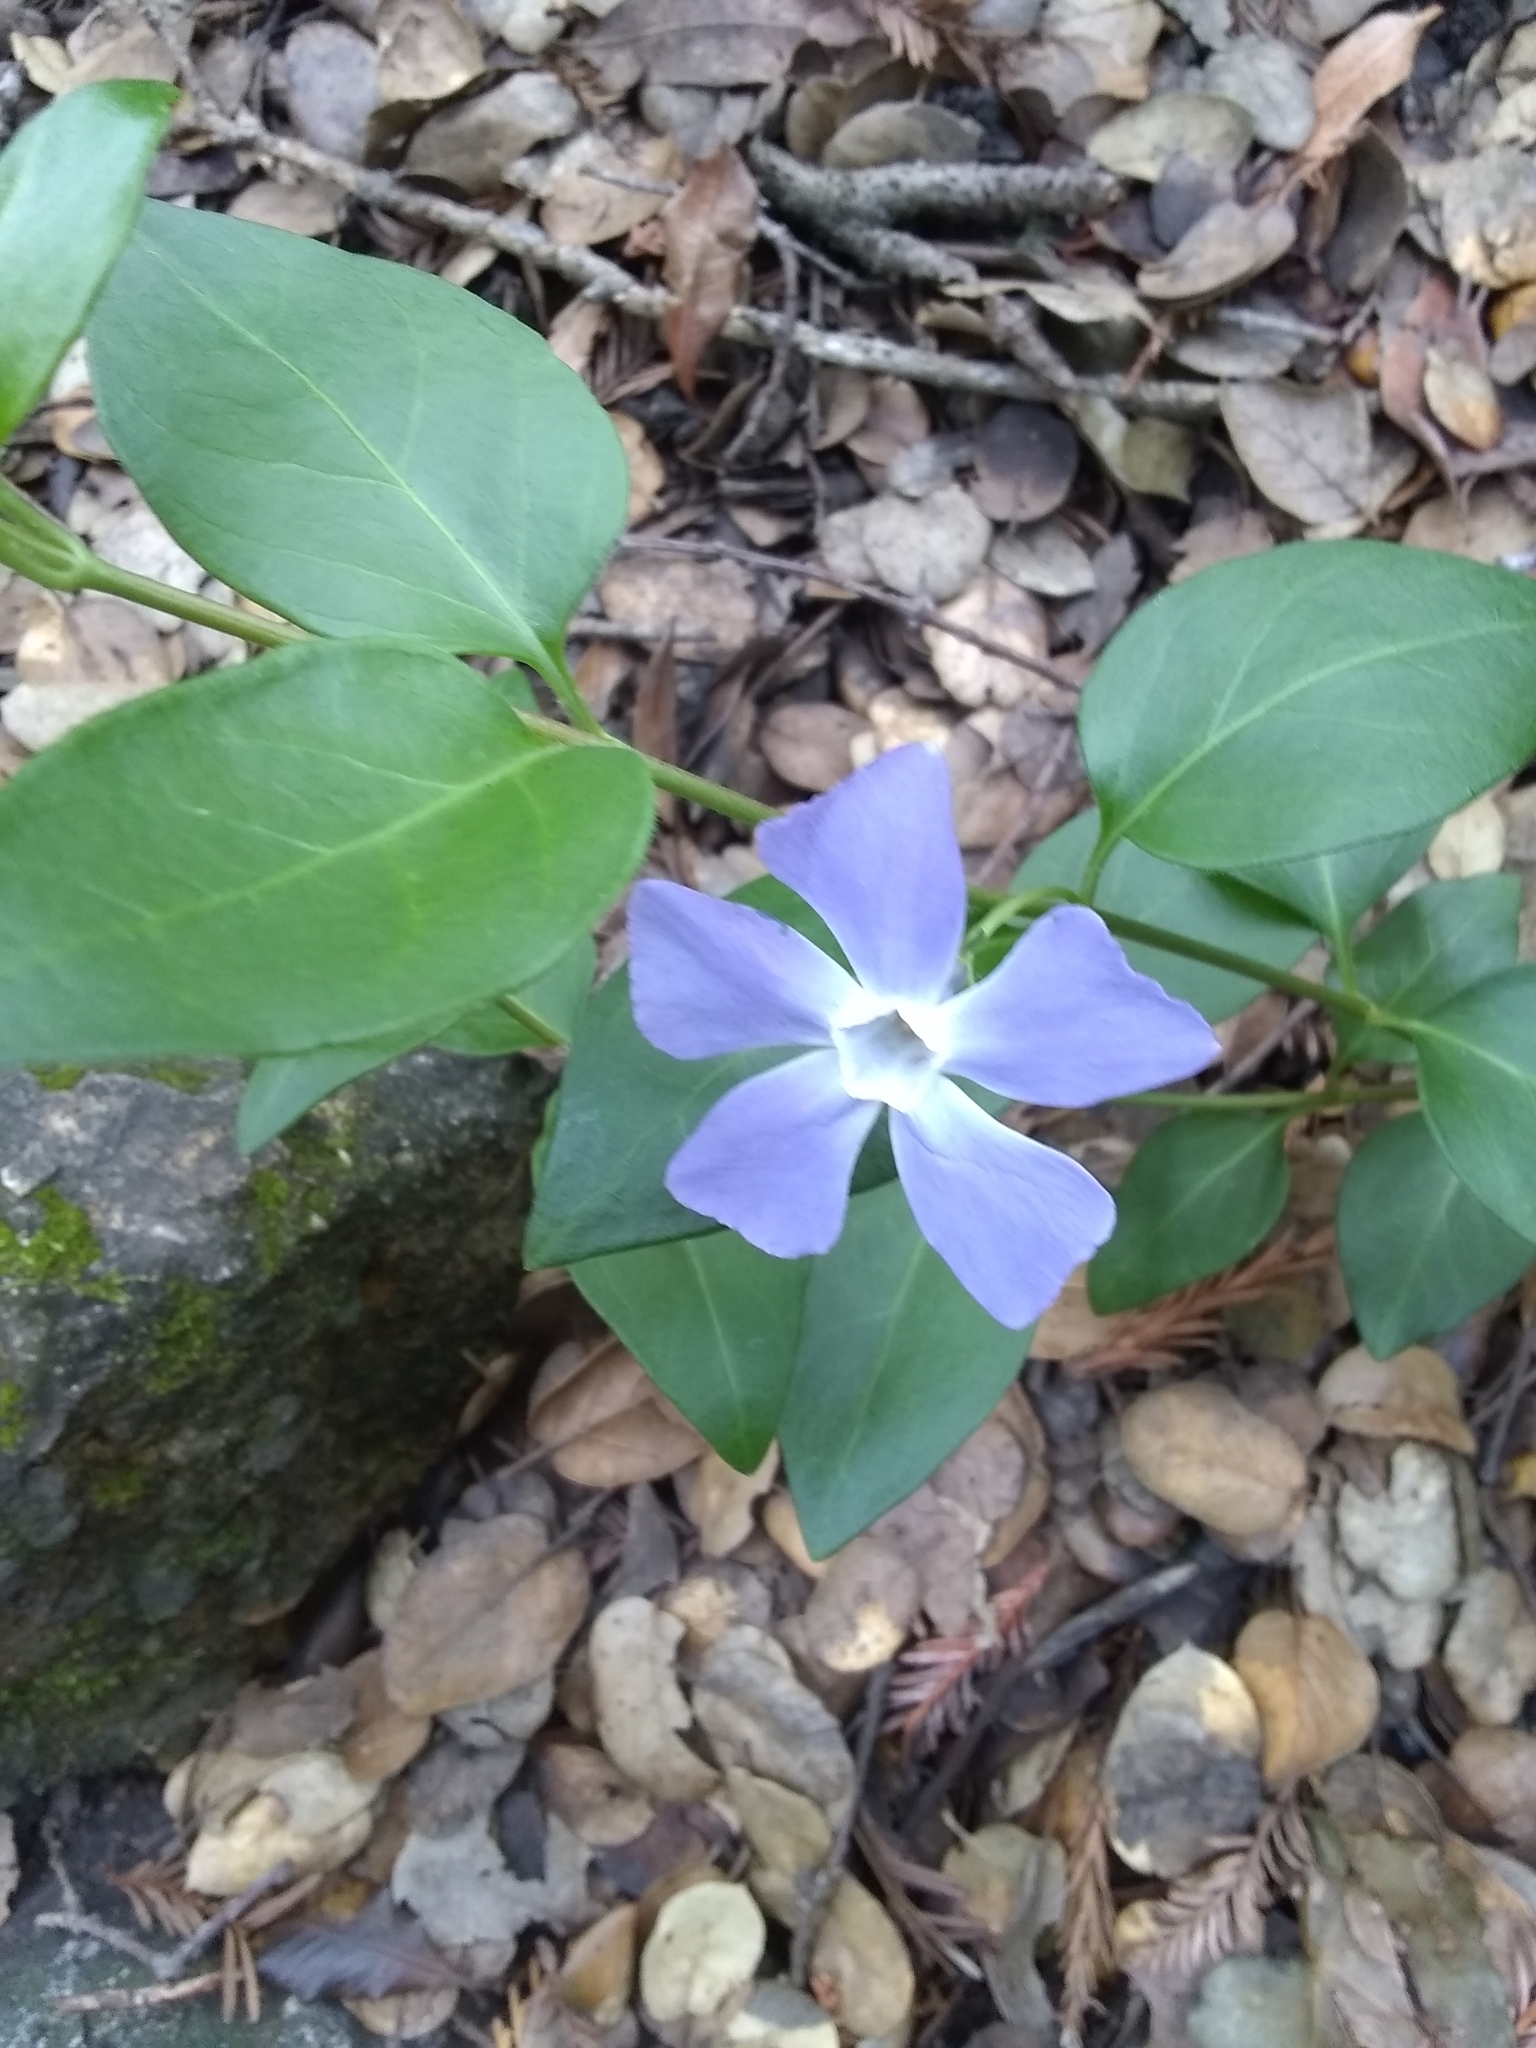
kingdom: Plantae
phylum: Tracheophyta
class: Magnoliopsida
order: Gentianales
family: Apocynaceae
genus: Vinca
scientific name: Vinca major
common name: Greater periwinkle
